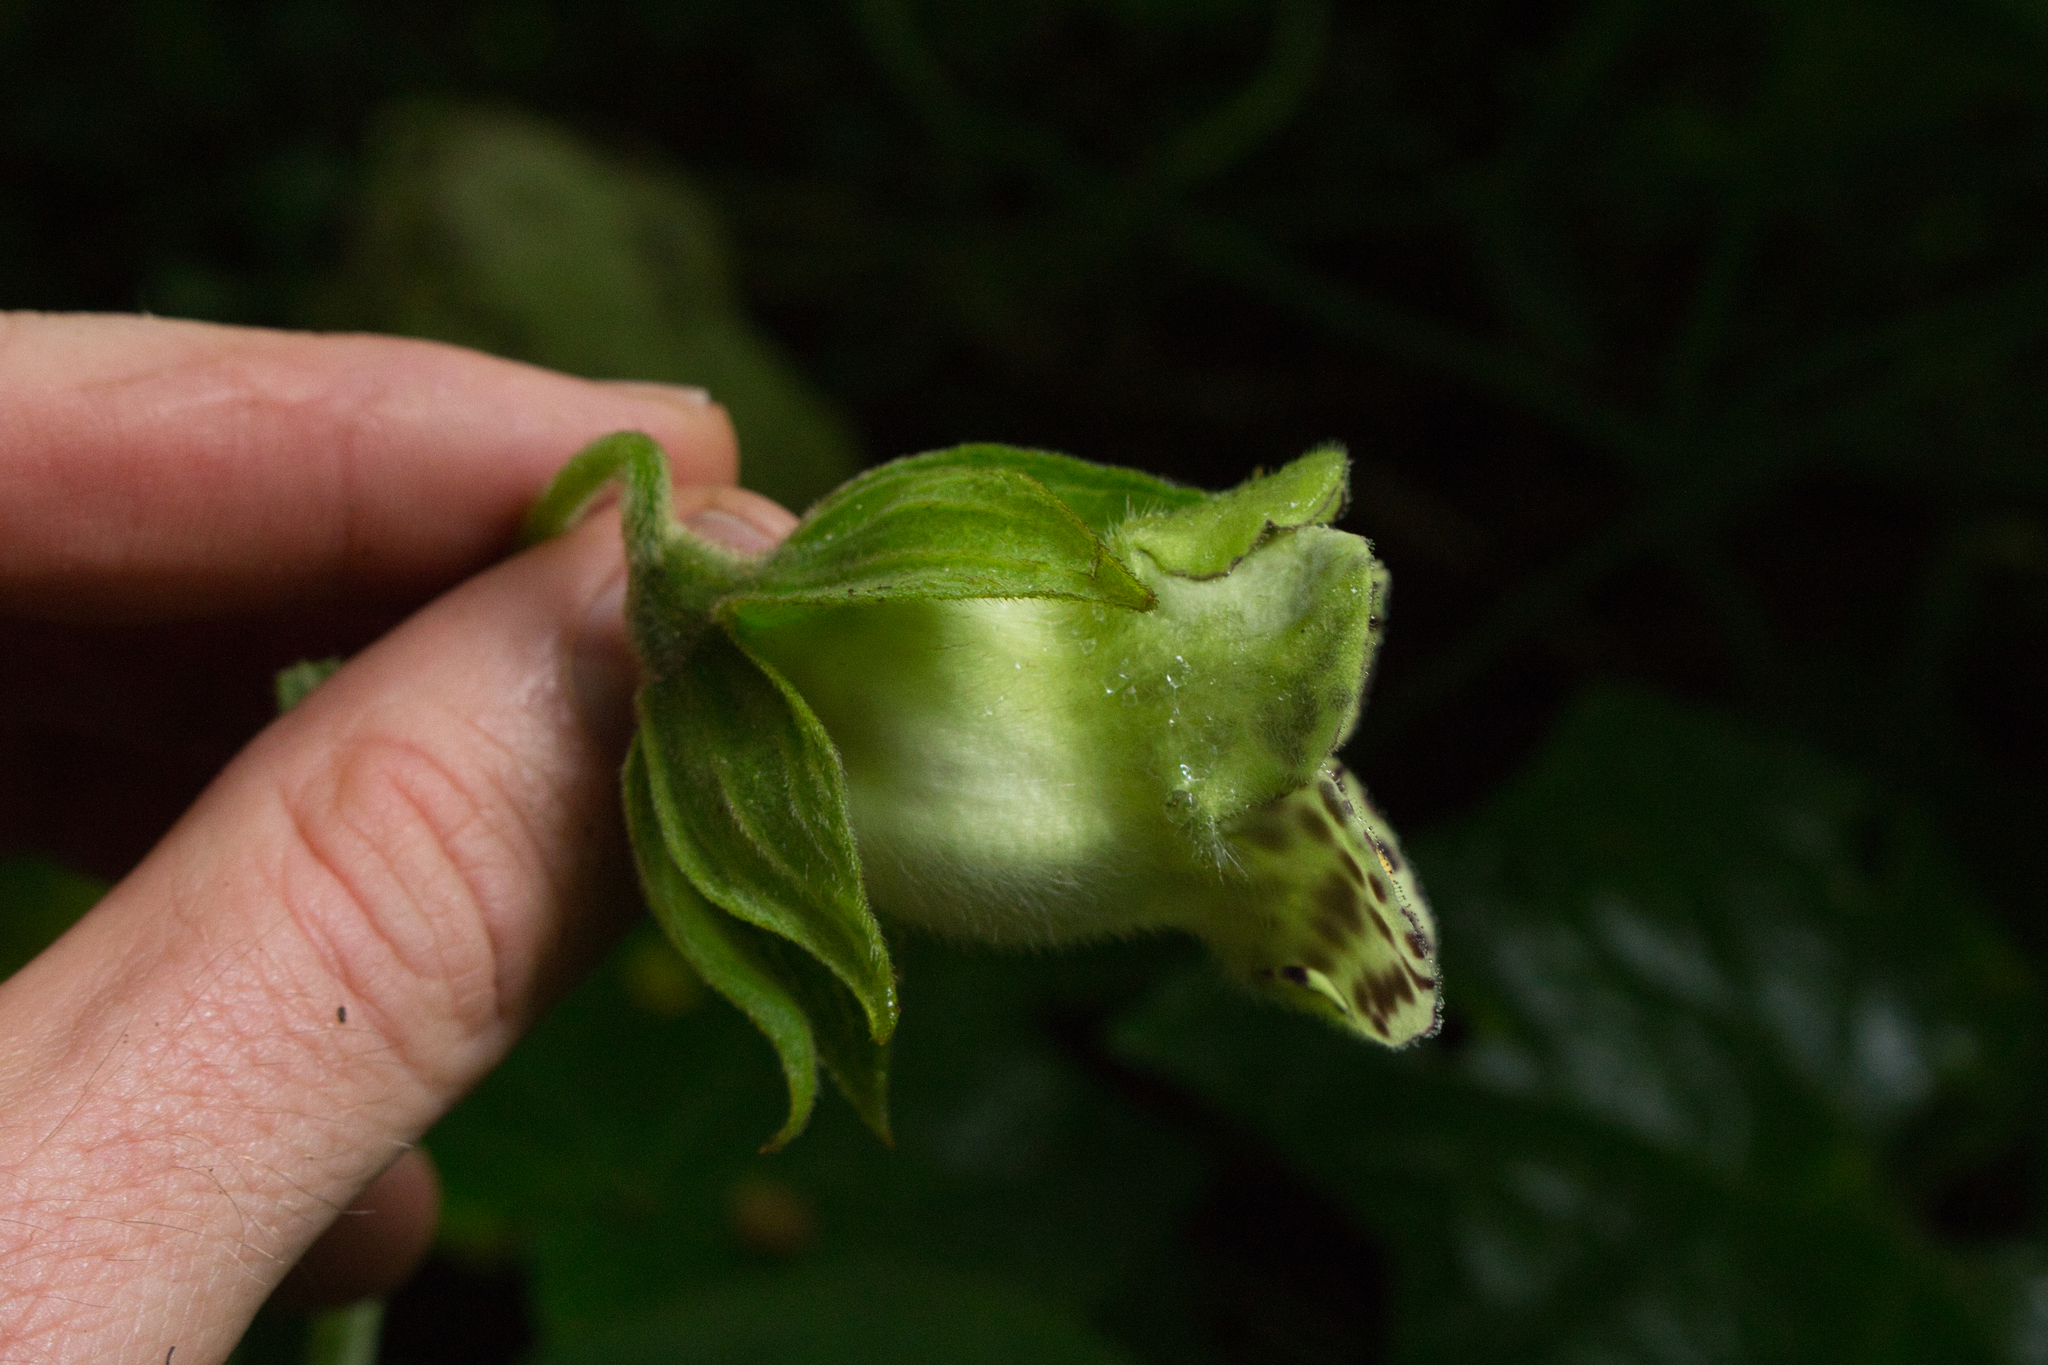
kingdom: Plantae
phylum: Tracheophyta
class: Magnoliopsida
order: Lamiales
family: Gesneriaceae
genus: Kohleria
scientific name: Kohleria tigridia
